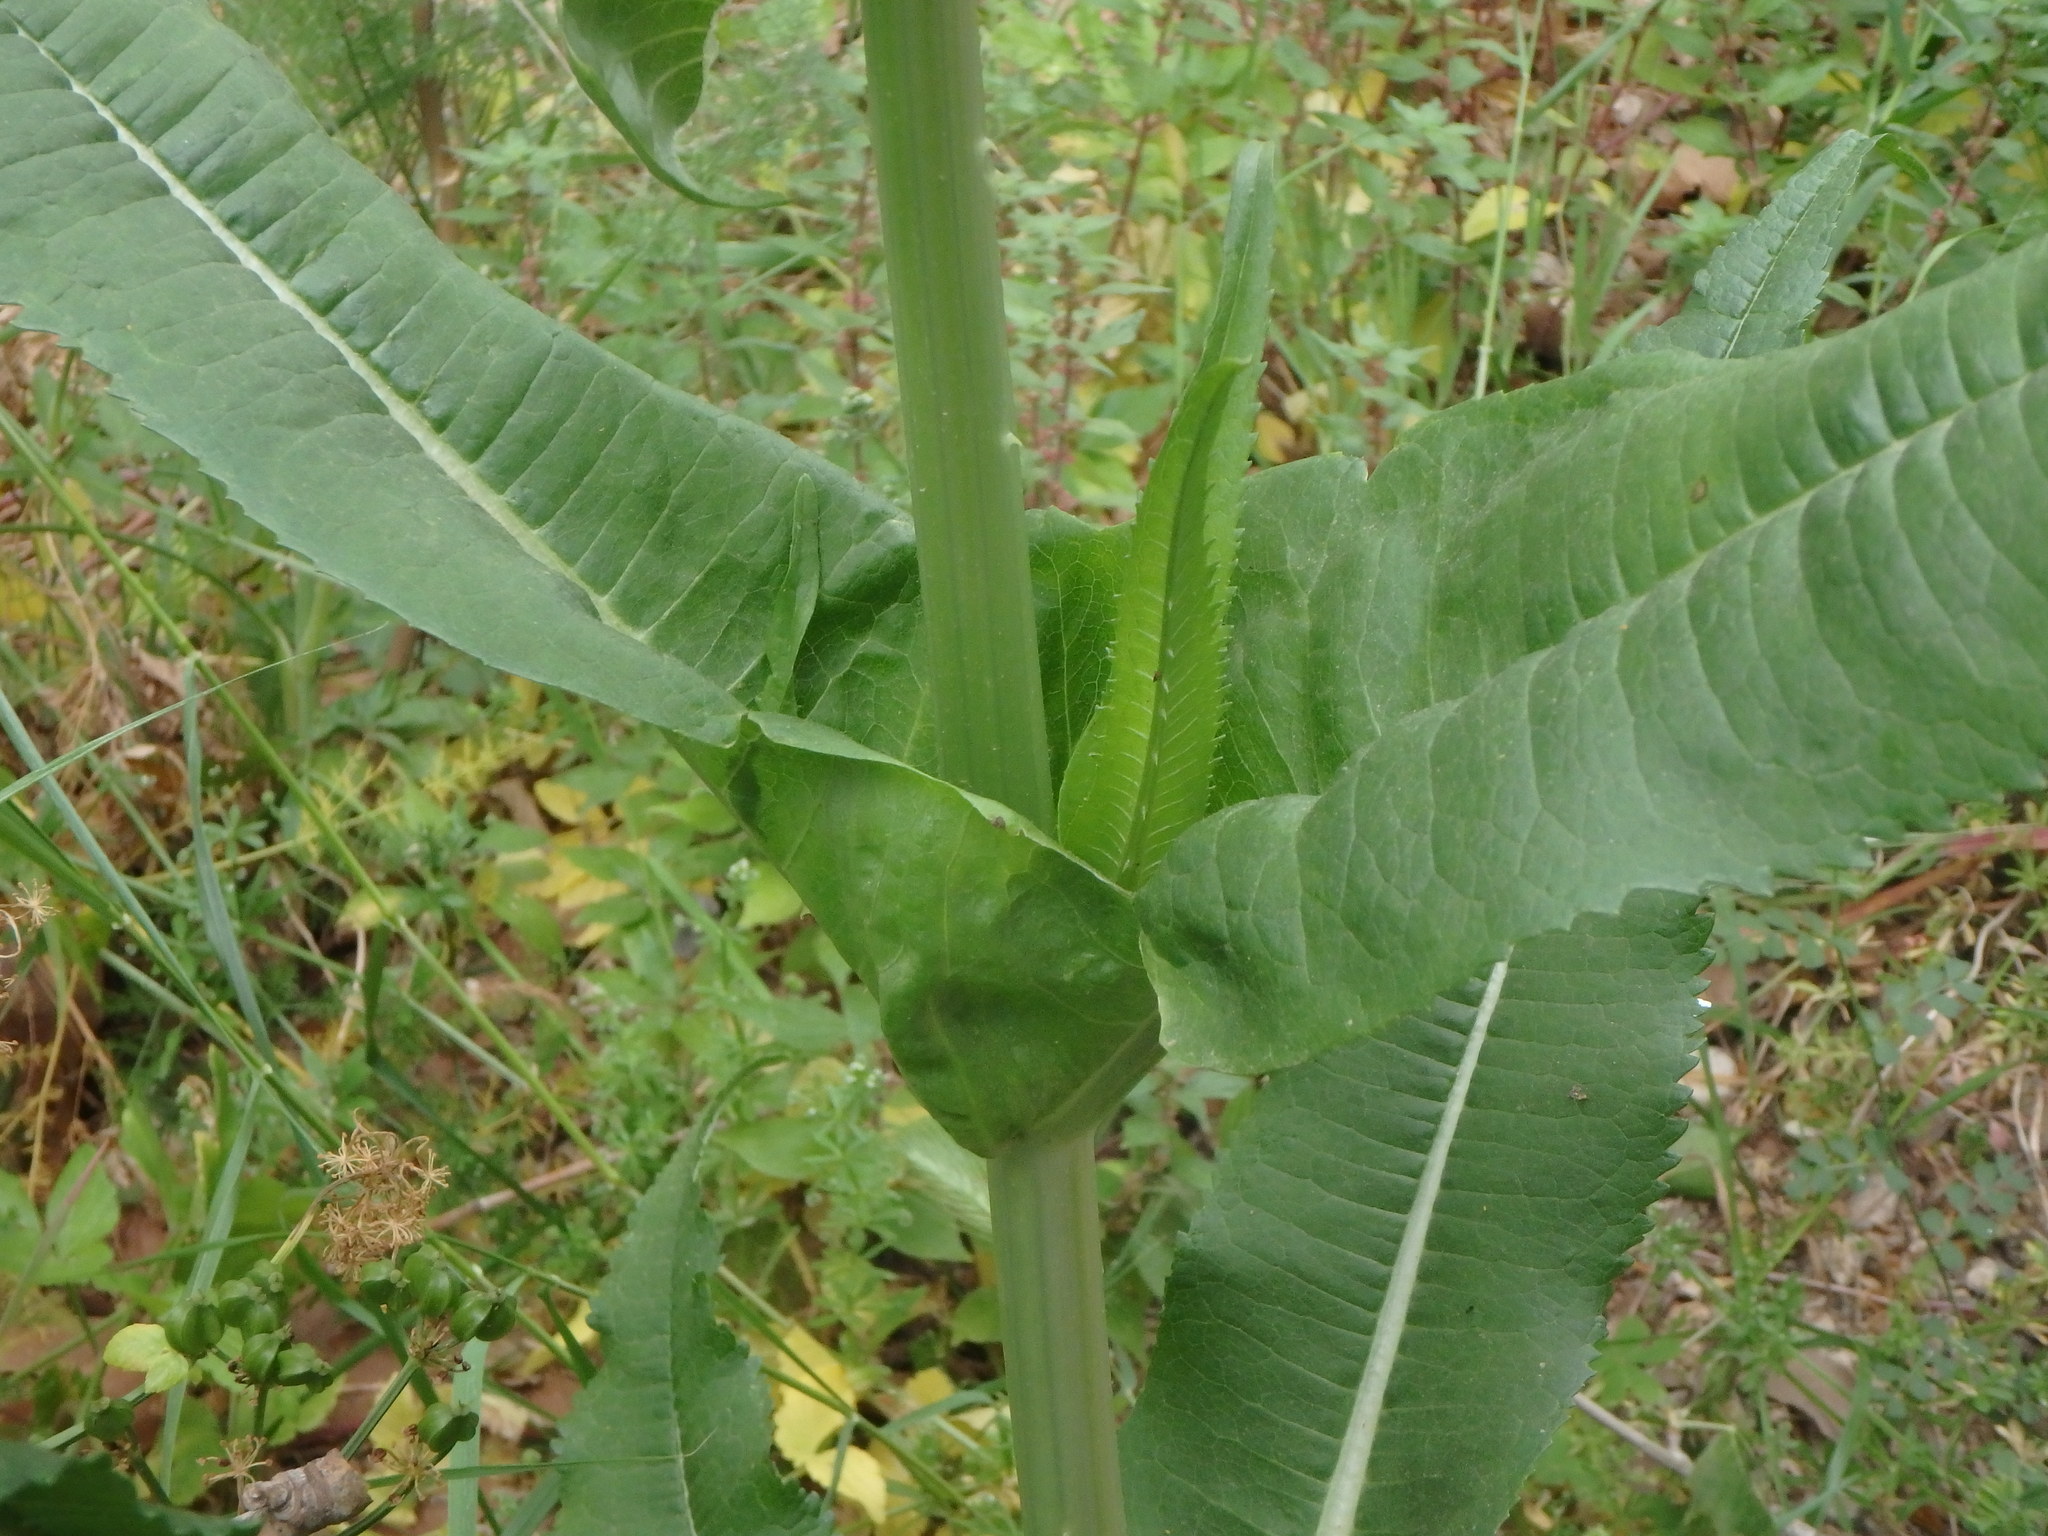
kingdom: Plantae
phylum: Tracheophyta
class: Magnoliopsida
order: Dipsacales
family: Caprifoliaceae
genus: Dipsacus
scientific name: Dipsacus fullonum
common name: Teasel
